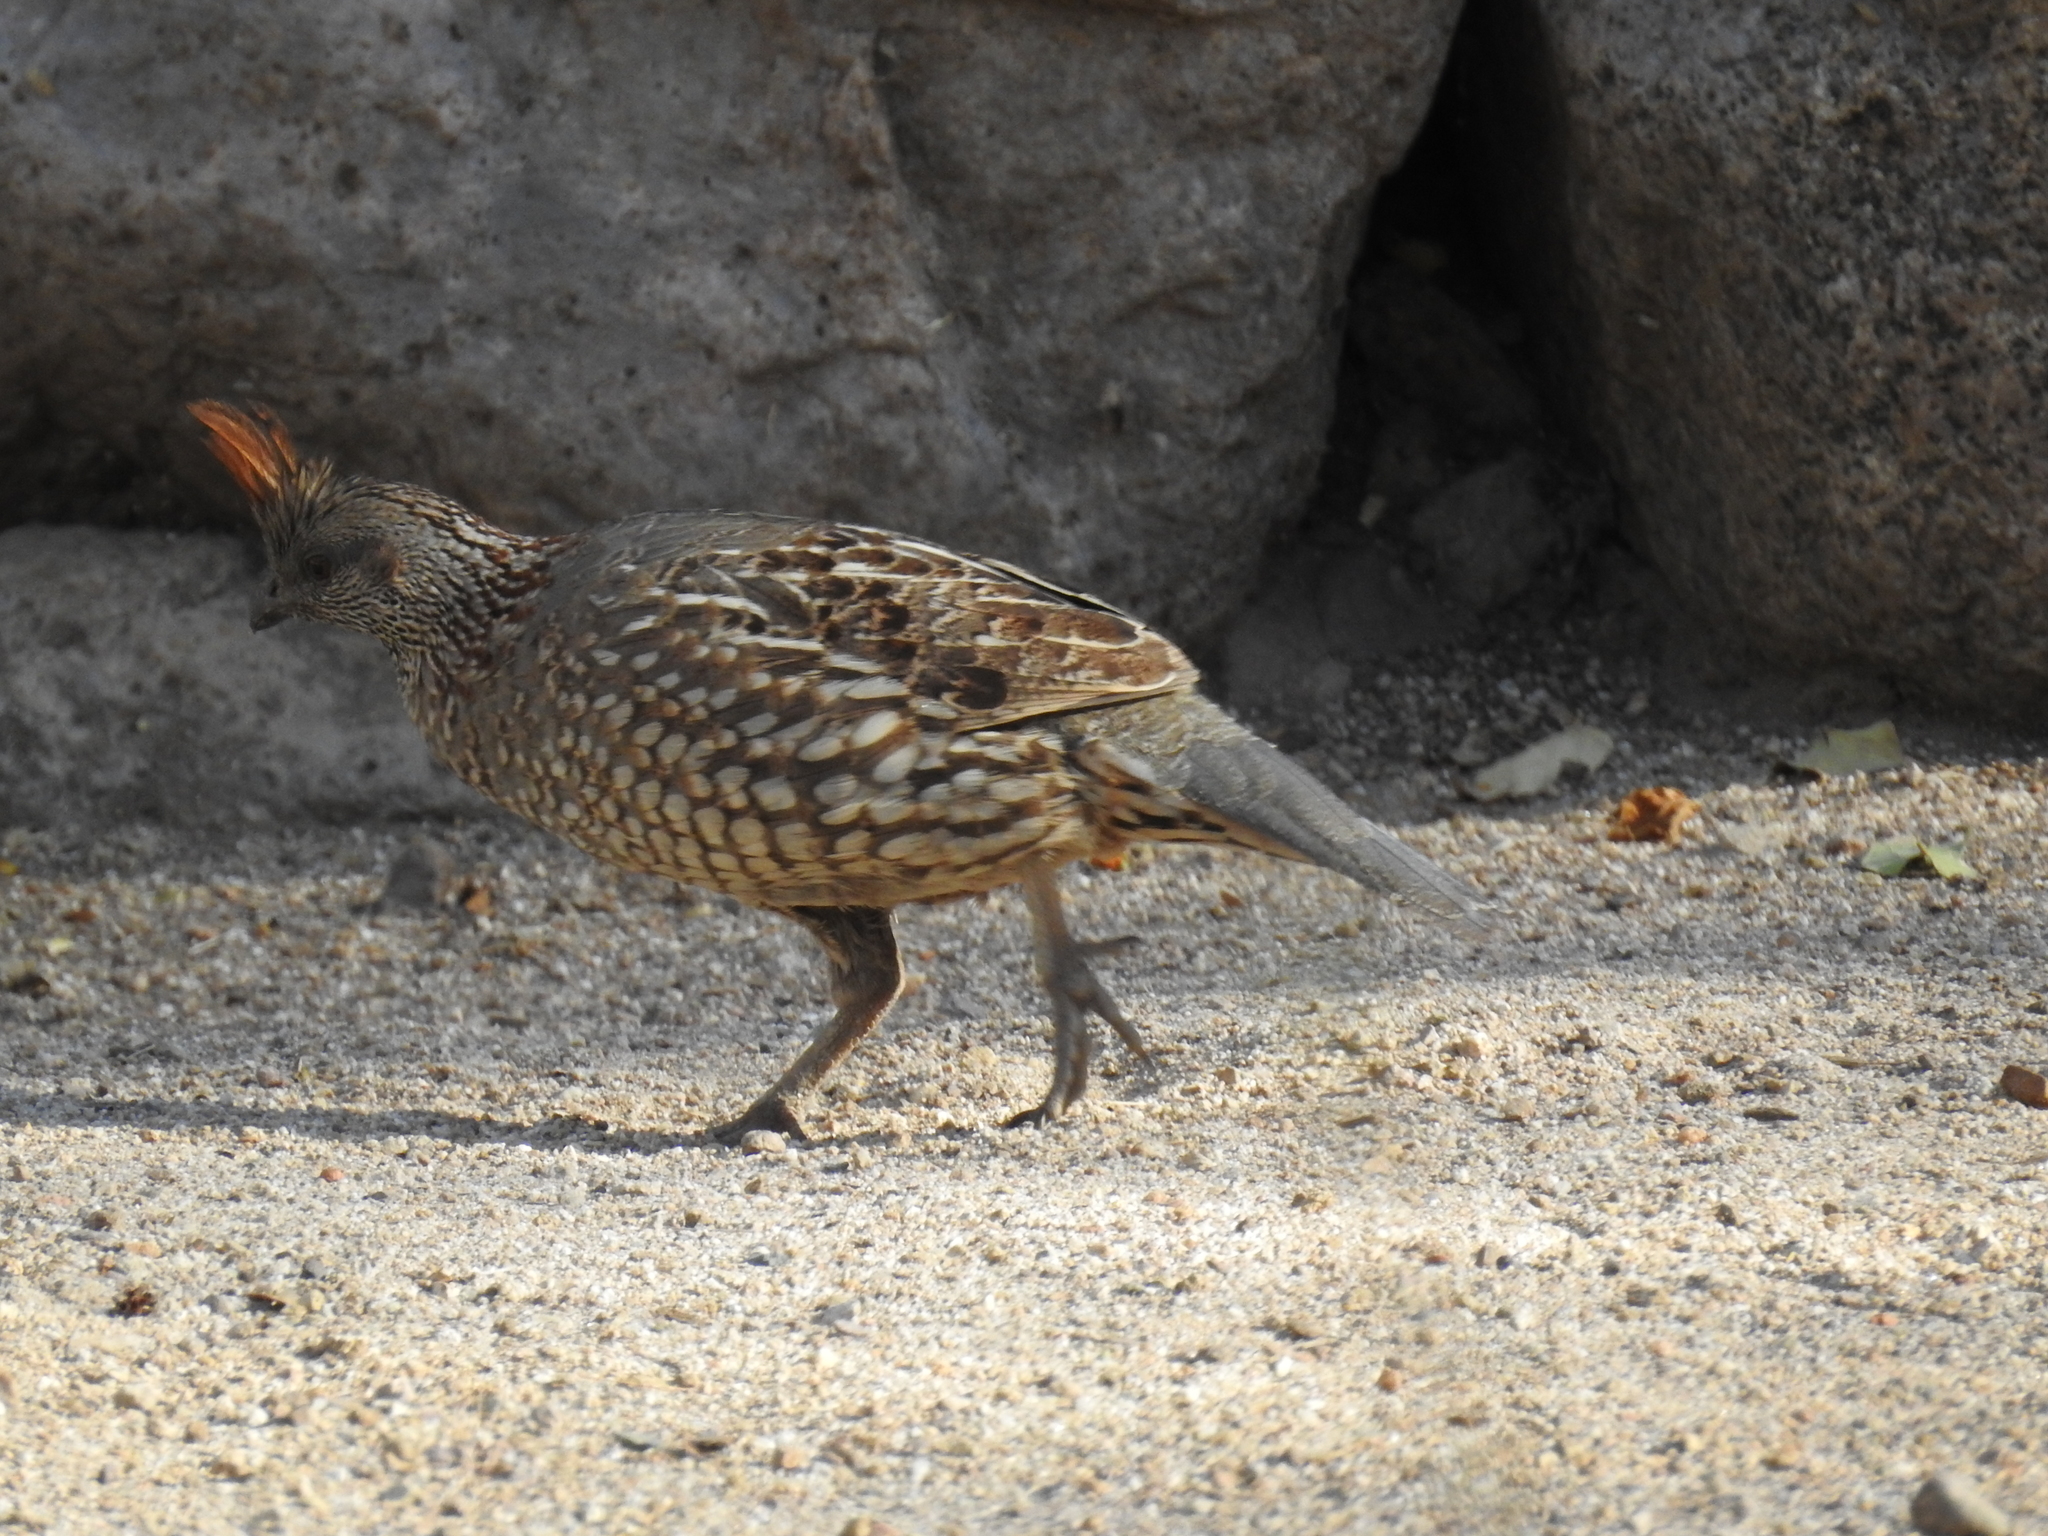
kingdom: Animalia
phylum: Chordata
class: Aves
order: Galliformes
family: Odontophoridae
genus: Callipepla
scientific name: Callipepla douglasii
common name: Elegant quail
